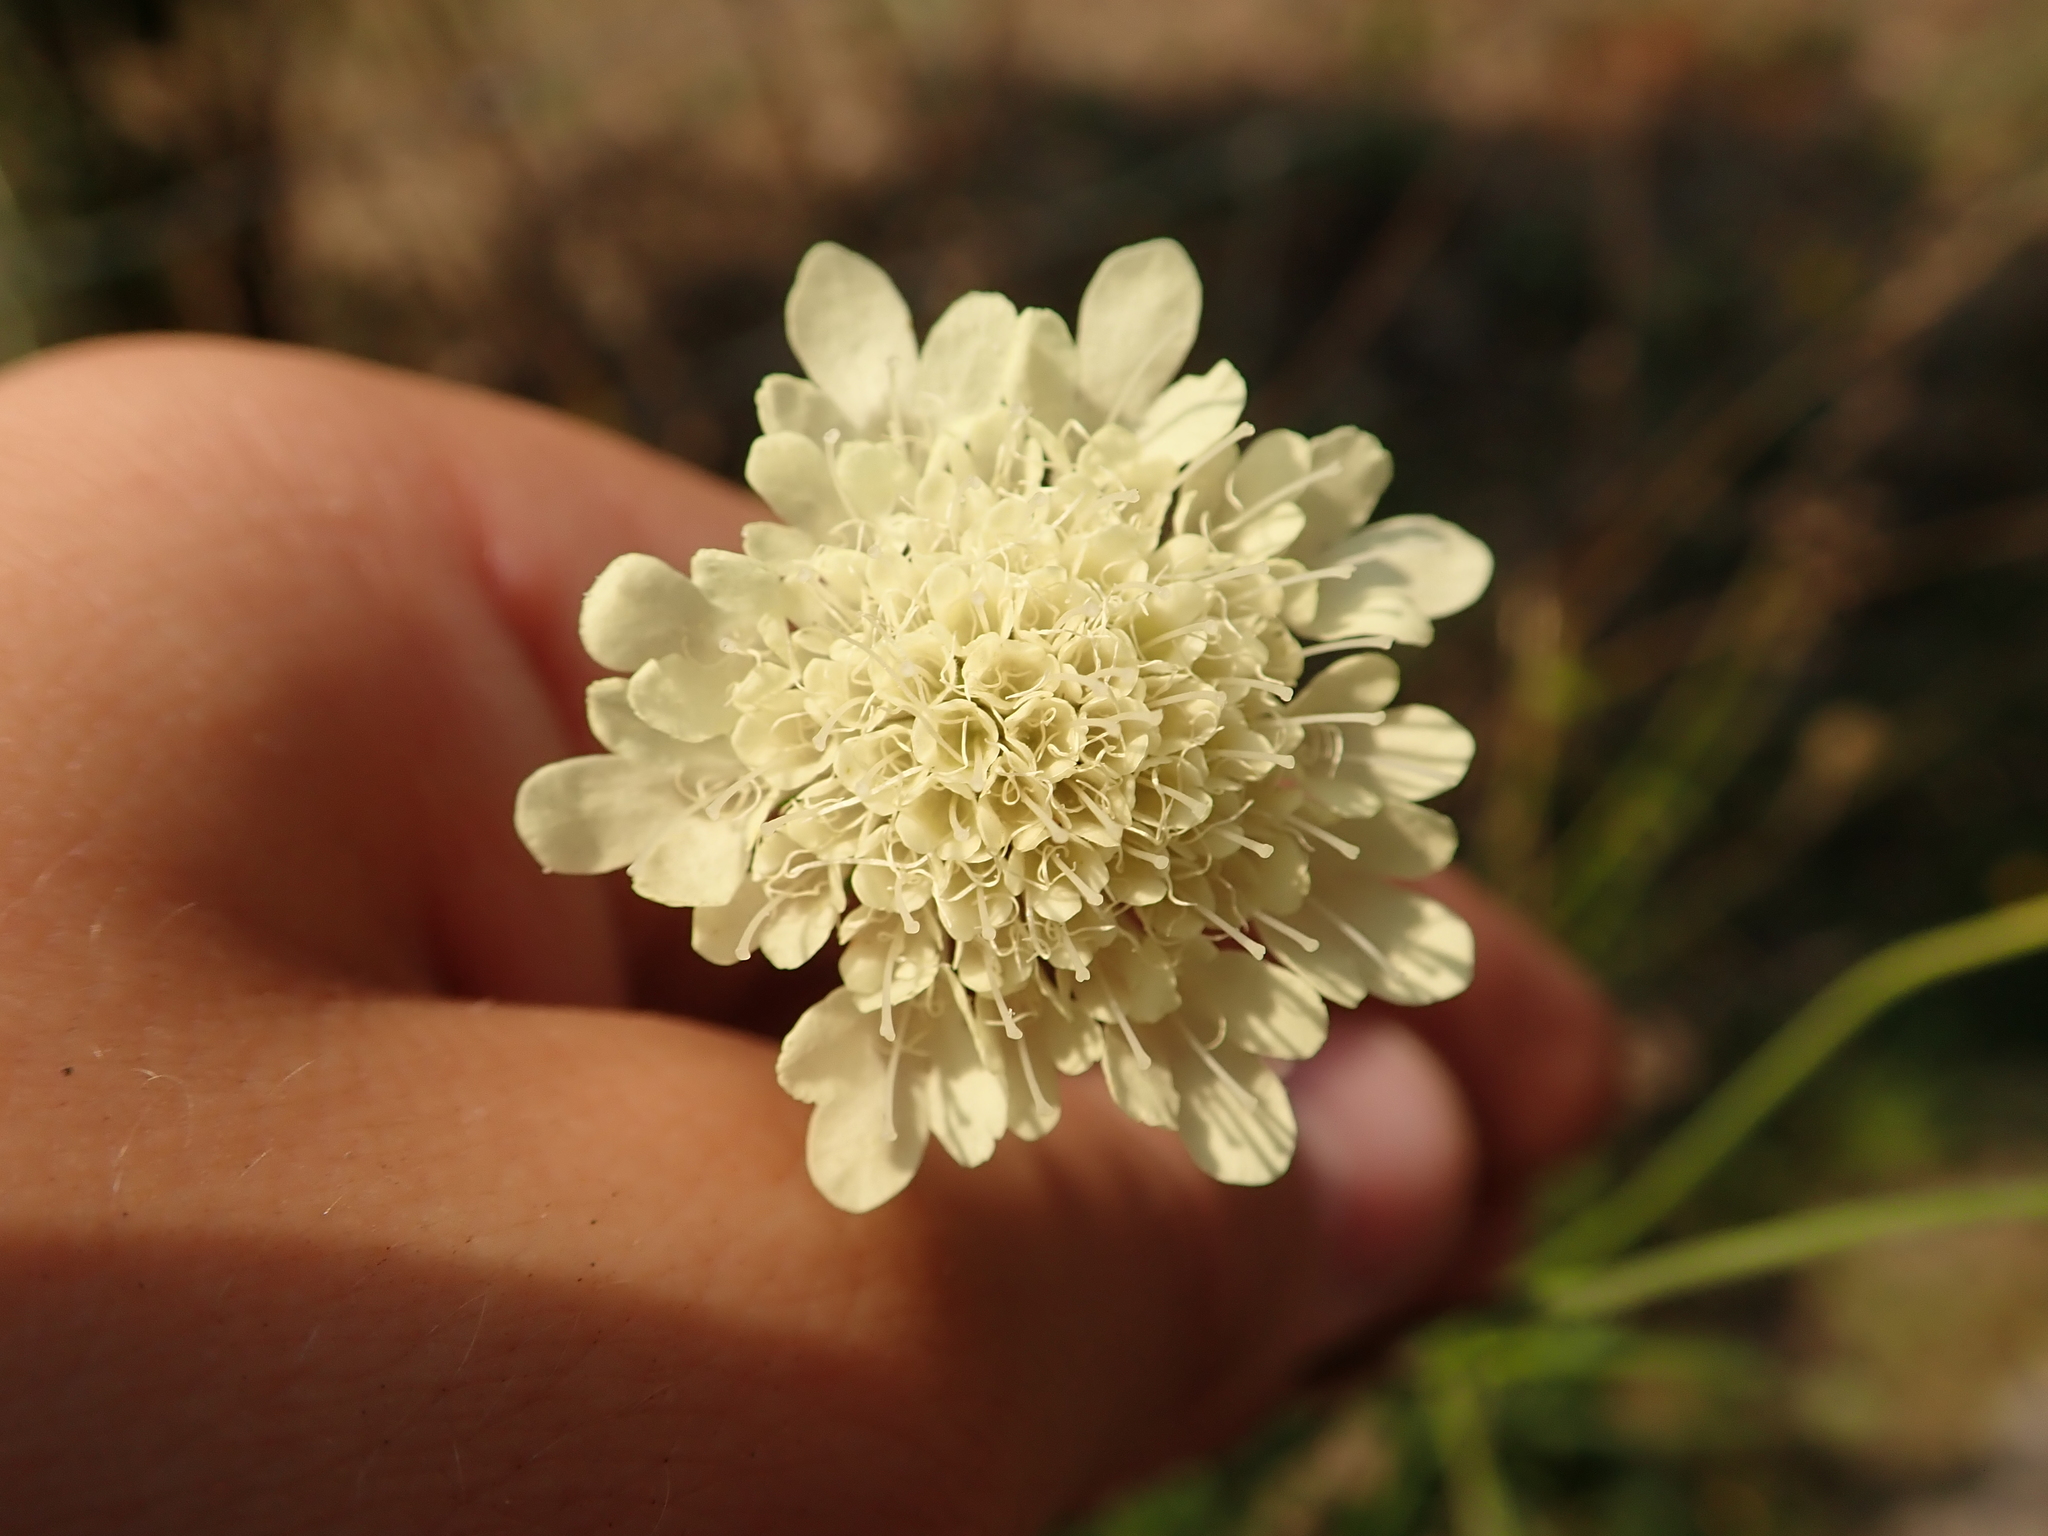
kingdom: Plantae
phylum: Tracheophyta
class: Magnoliopsida
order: Dipsacales
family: Caprifoliaceae
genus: Scabiosa
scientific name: Scabiosa ochroleuca
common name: Cream pincushions
